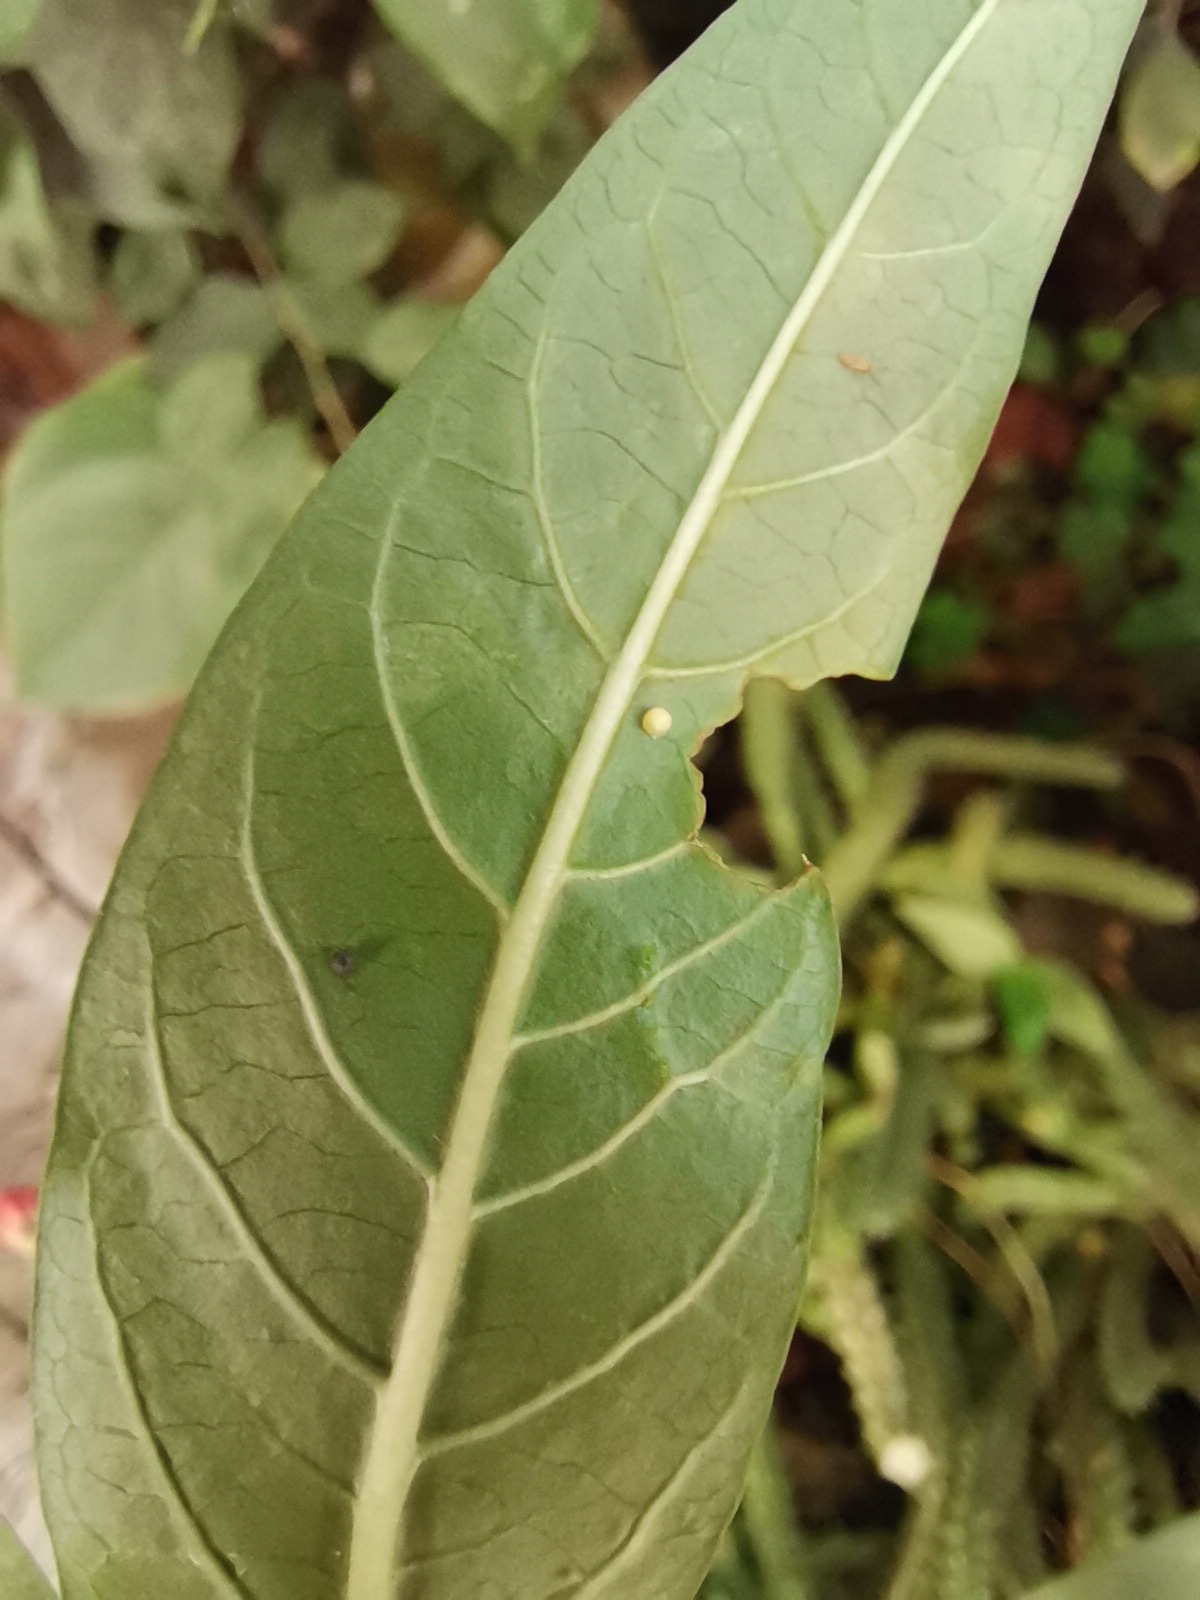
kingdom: Animalia
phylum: Arthropoda
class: Insecta
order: Lepidoptera
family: Nymphalidae
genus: Danaus
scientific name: Danaus plexippus
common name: Monarch
